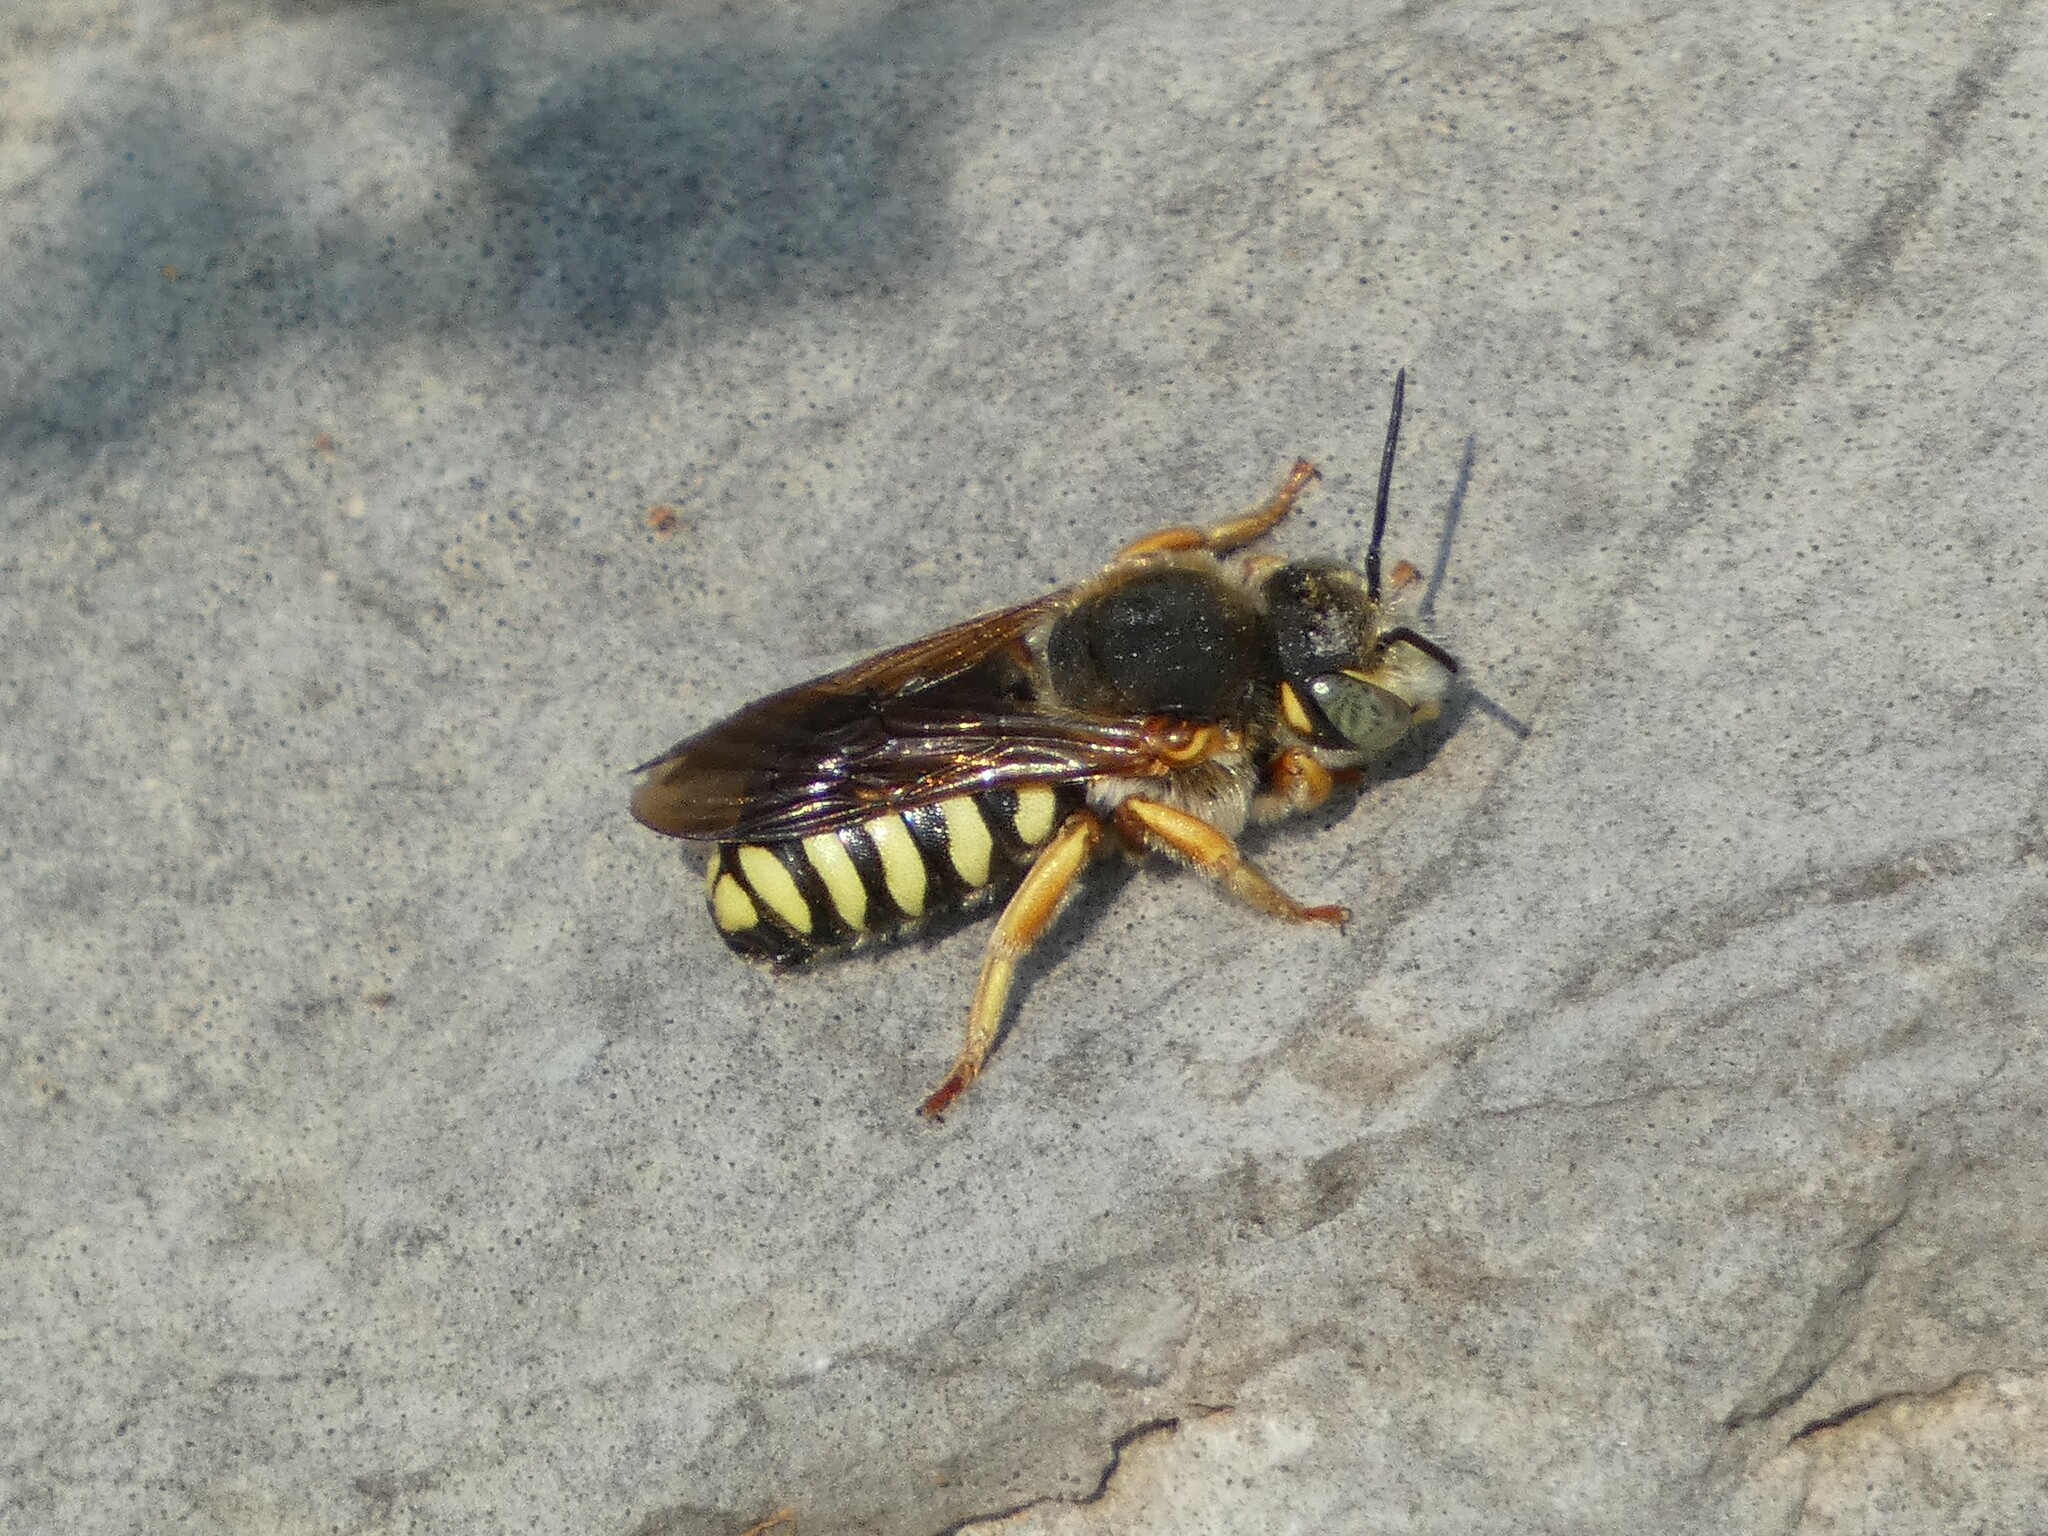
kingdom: Animalia
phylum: Arthropoda
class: Insecta
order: Hymenoptera
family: Megachilidae
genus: Rhodanthidium
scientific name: Rhodanthidium septemdentatum
